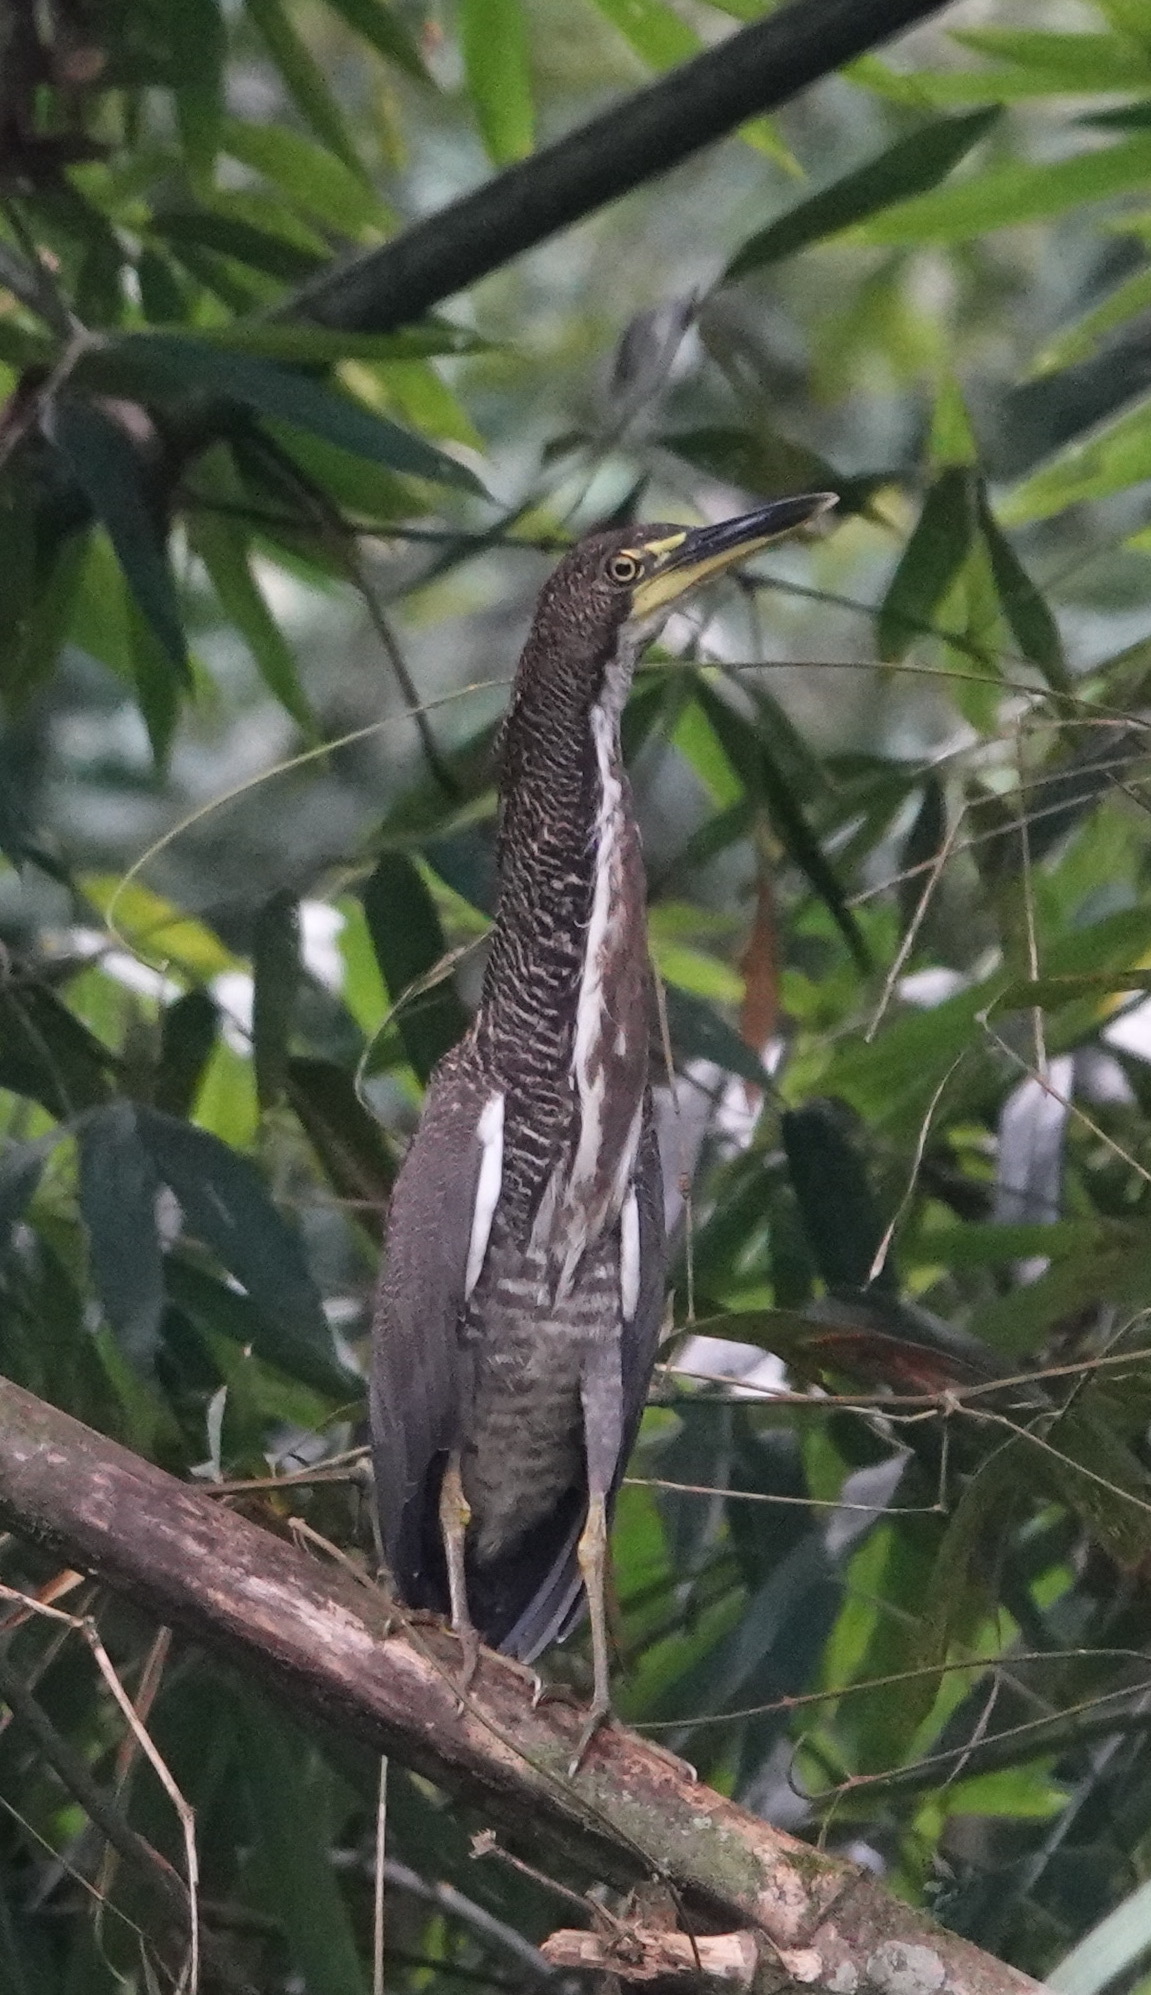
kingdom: Animalia
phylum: Chordata
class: Aves
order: Pelecaniformes
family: Ardeidae
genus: Tigrisoma
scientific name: Tigrisoma fasciatum
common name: Fasciated tiger-heron
